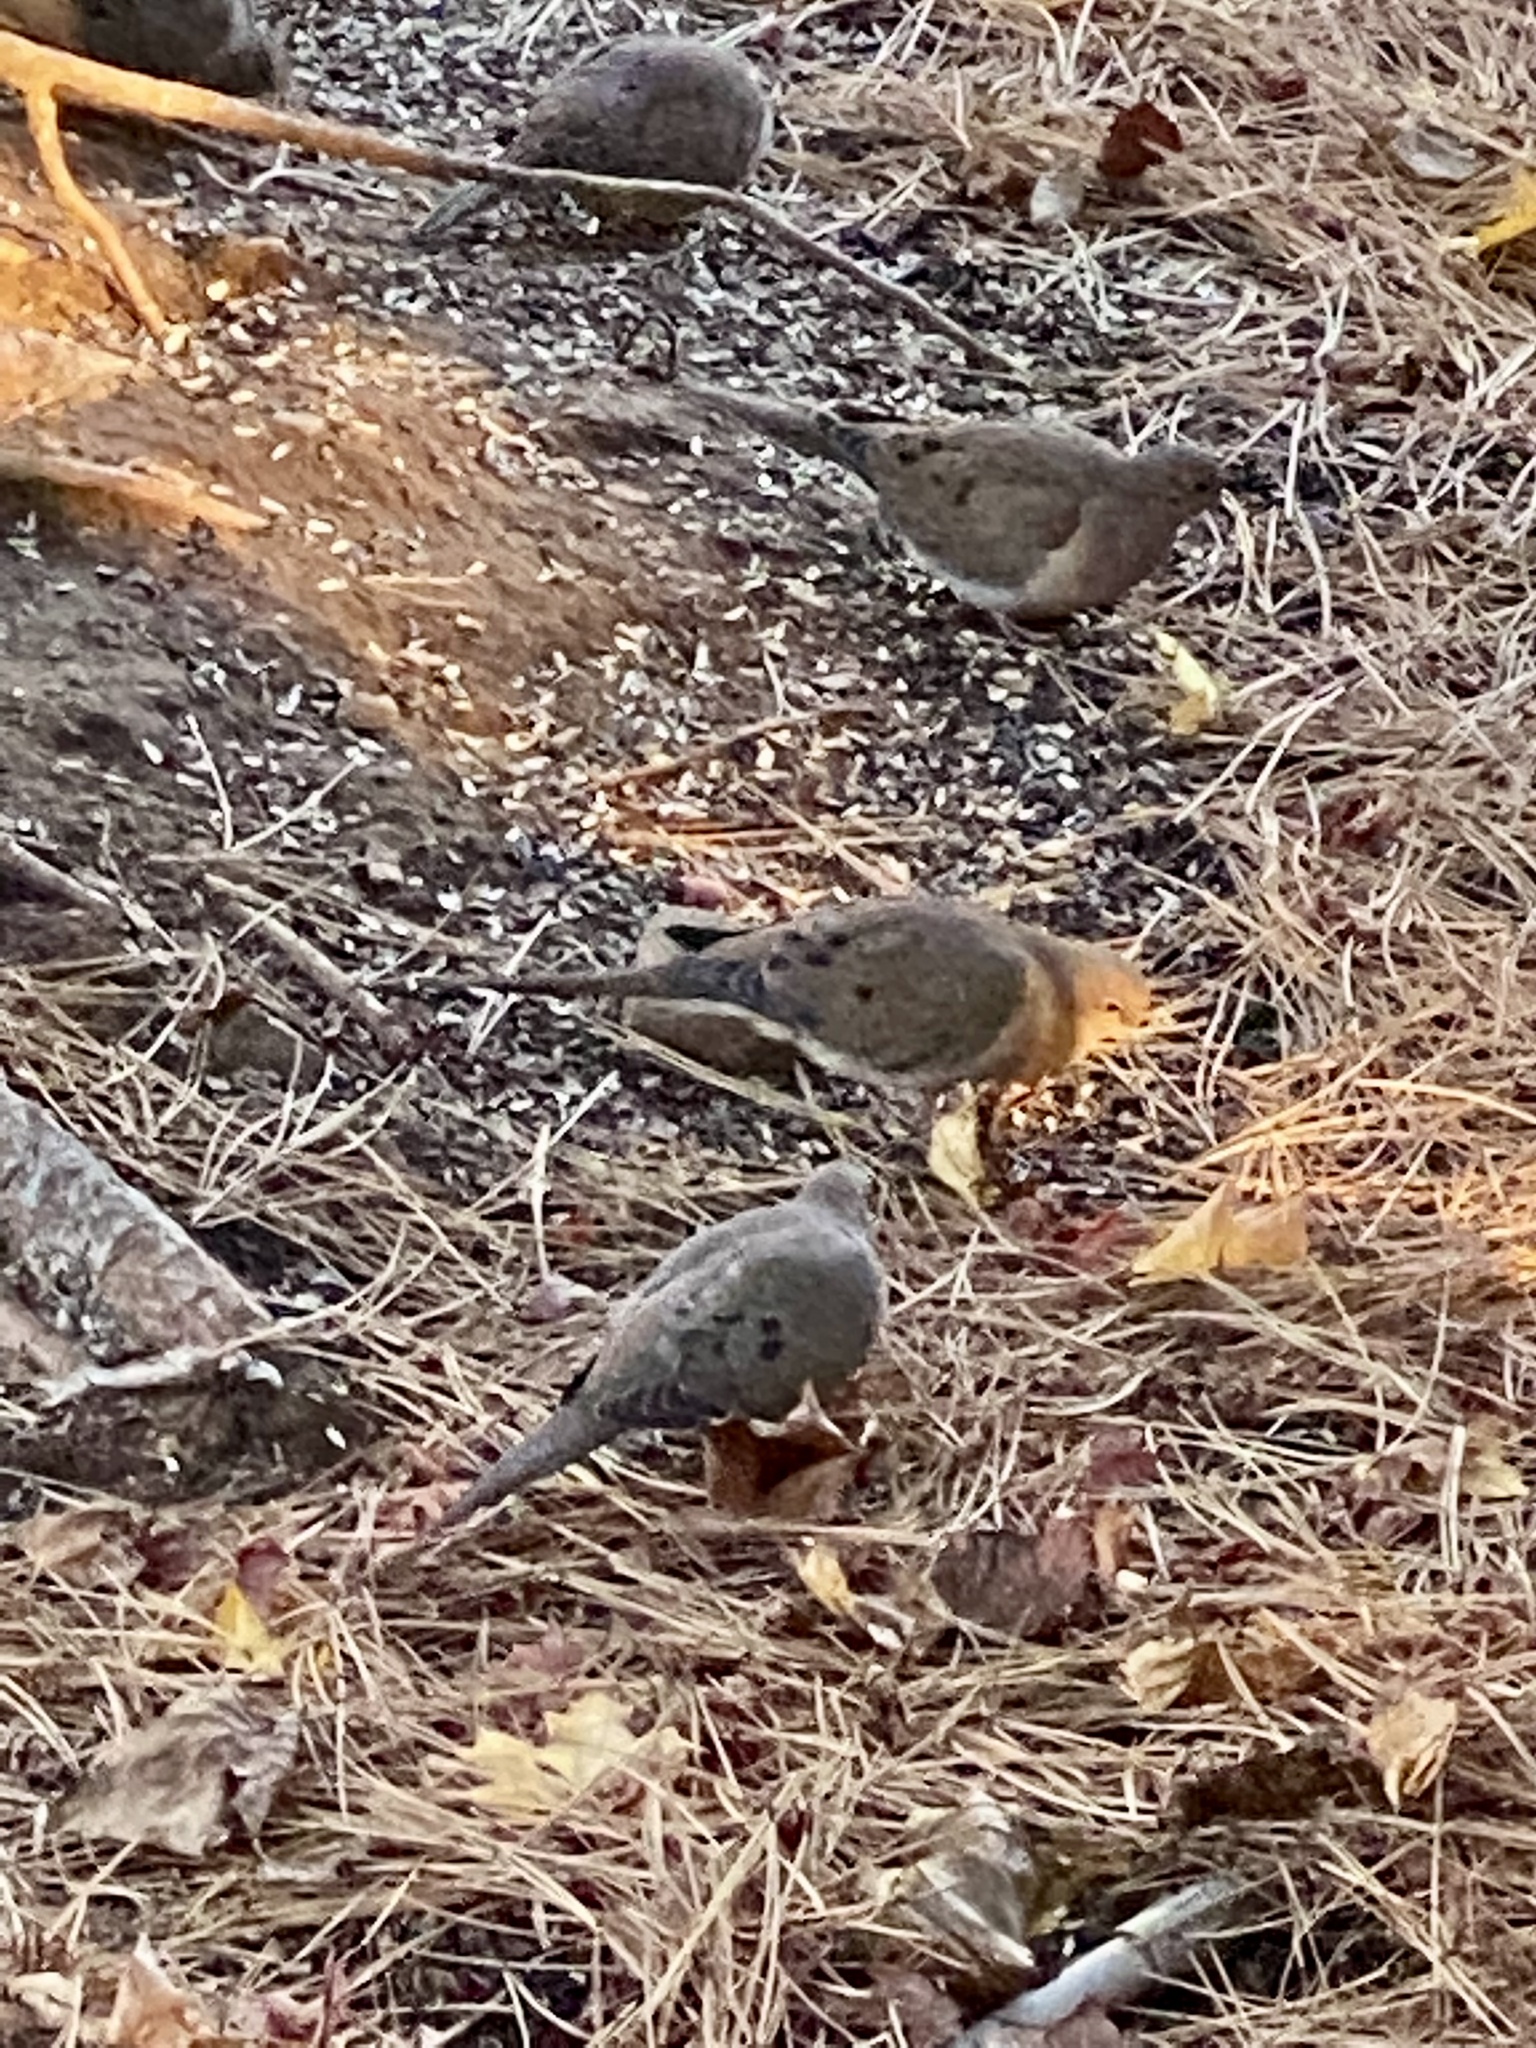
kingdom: Animalia
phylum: Chordata
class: Aves
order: Columbiformes
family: Columbidae
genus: Zenaida
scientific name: Zenaida macroura
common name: Mourning dove
